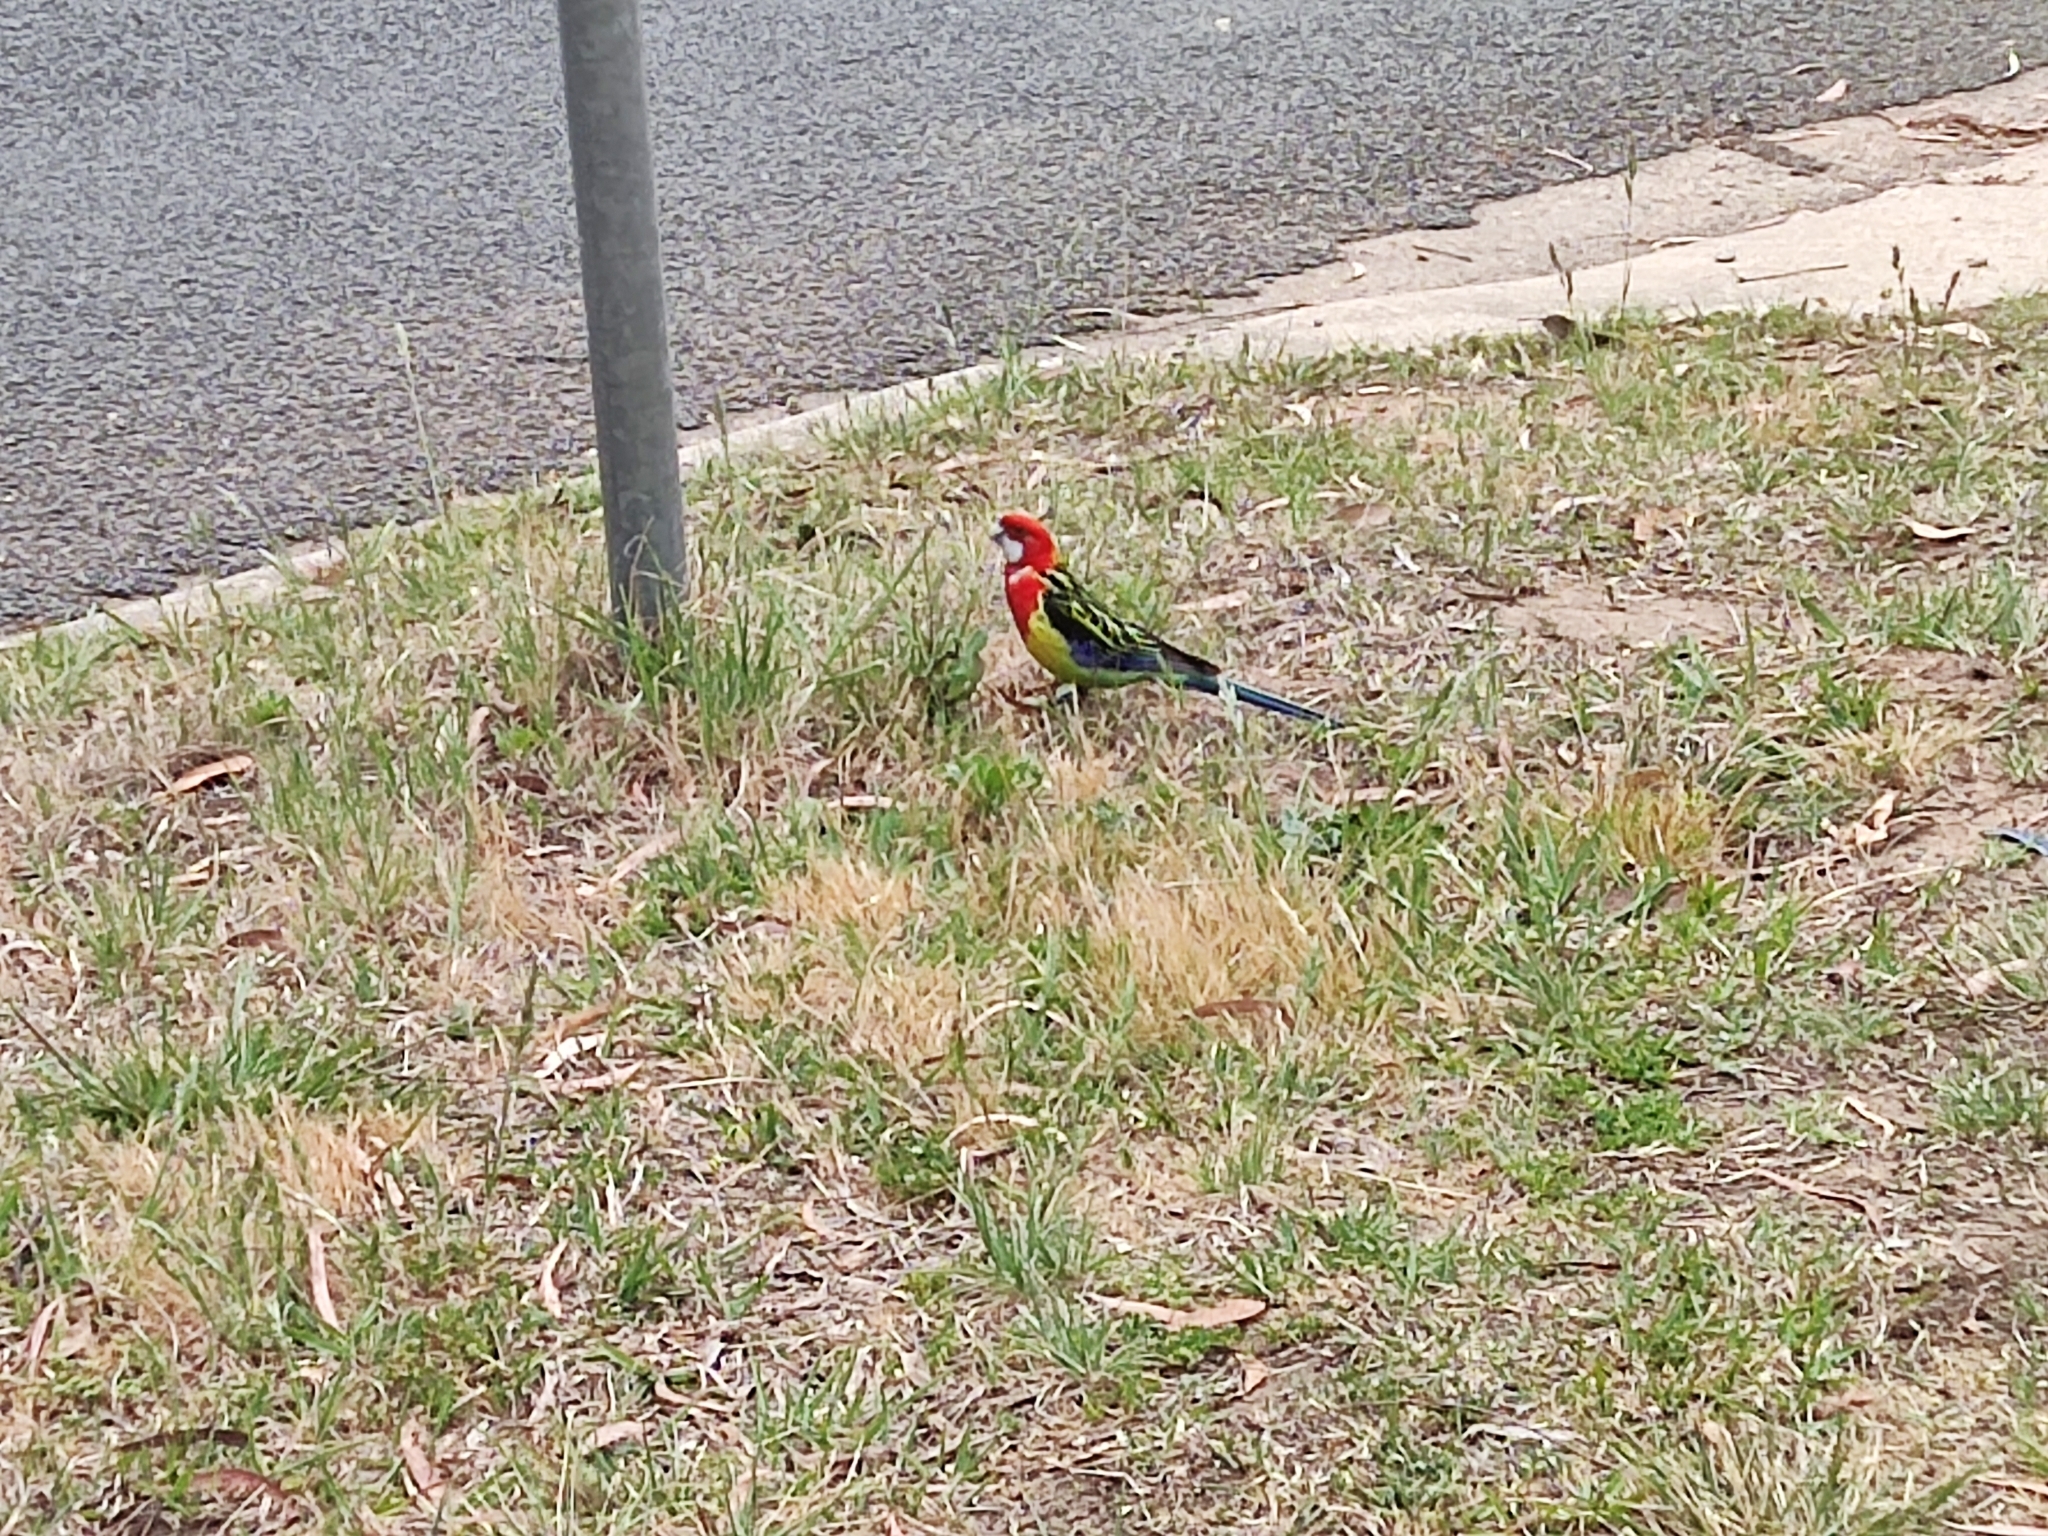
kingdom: Animalia
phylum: Chordata
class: Aves
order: Psittaciformes
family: Psittacidae
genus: Platycercus
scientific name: Platycercus eximius
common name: Eastern rosella
